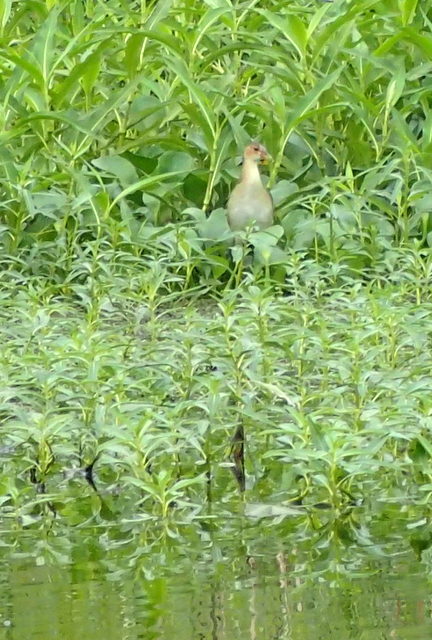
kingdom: Animalia
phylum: Chordata
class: Aves
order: Gruiformes
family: Rallidae
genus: Porphyrio
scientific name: Porphyrio martinica
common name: Purple gallinule
